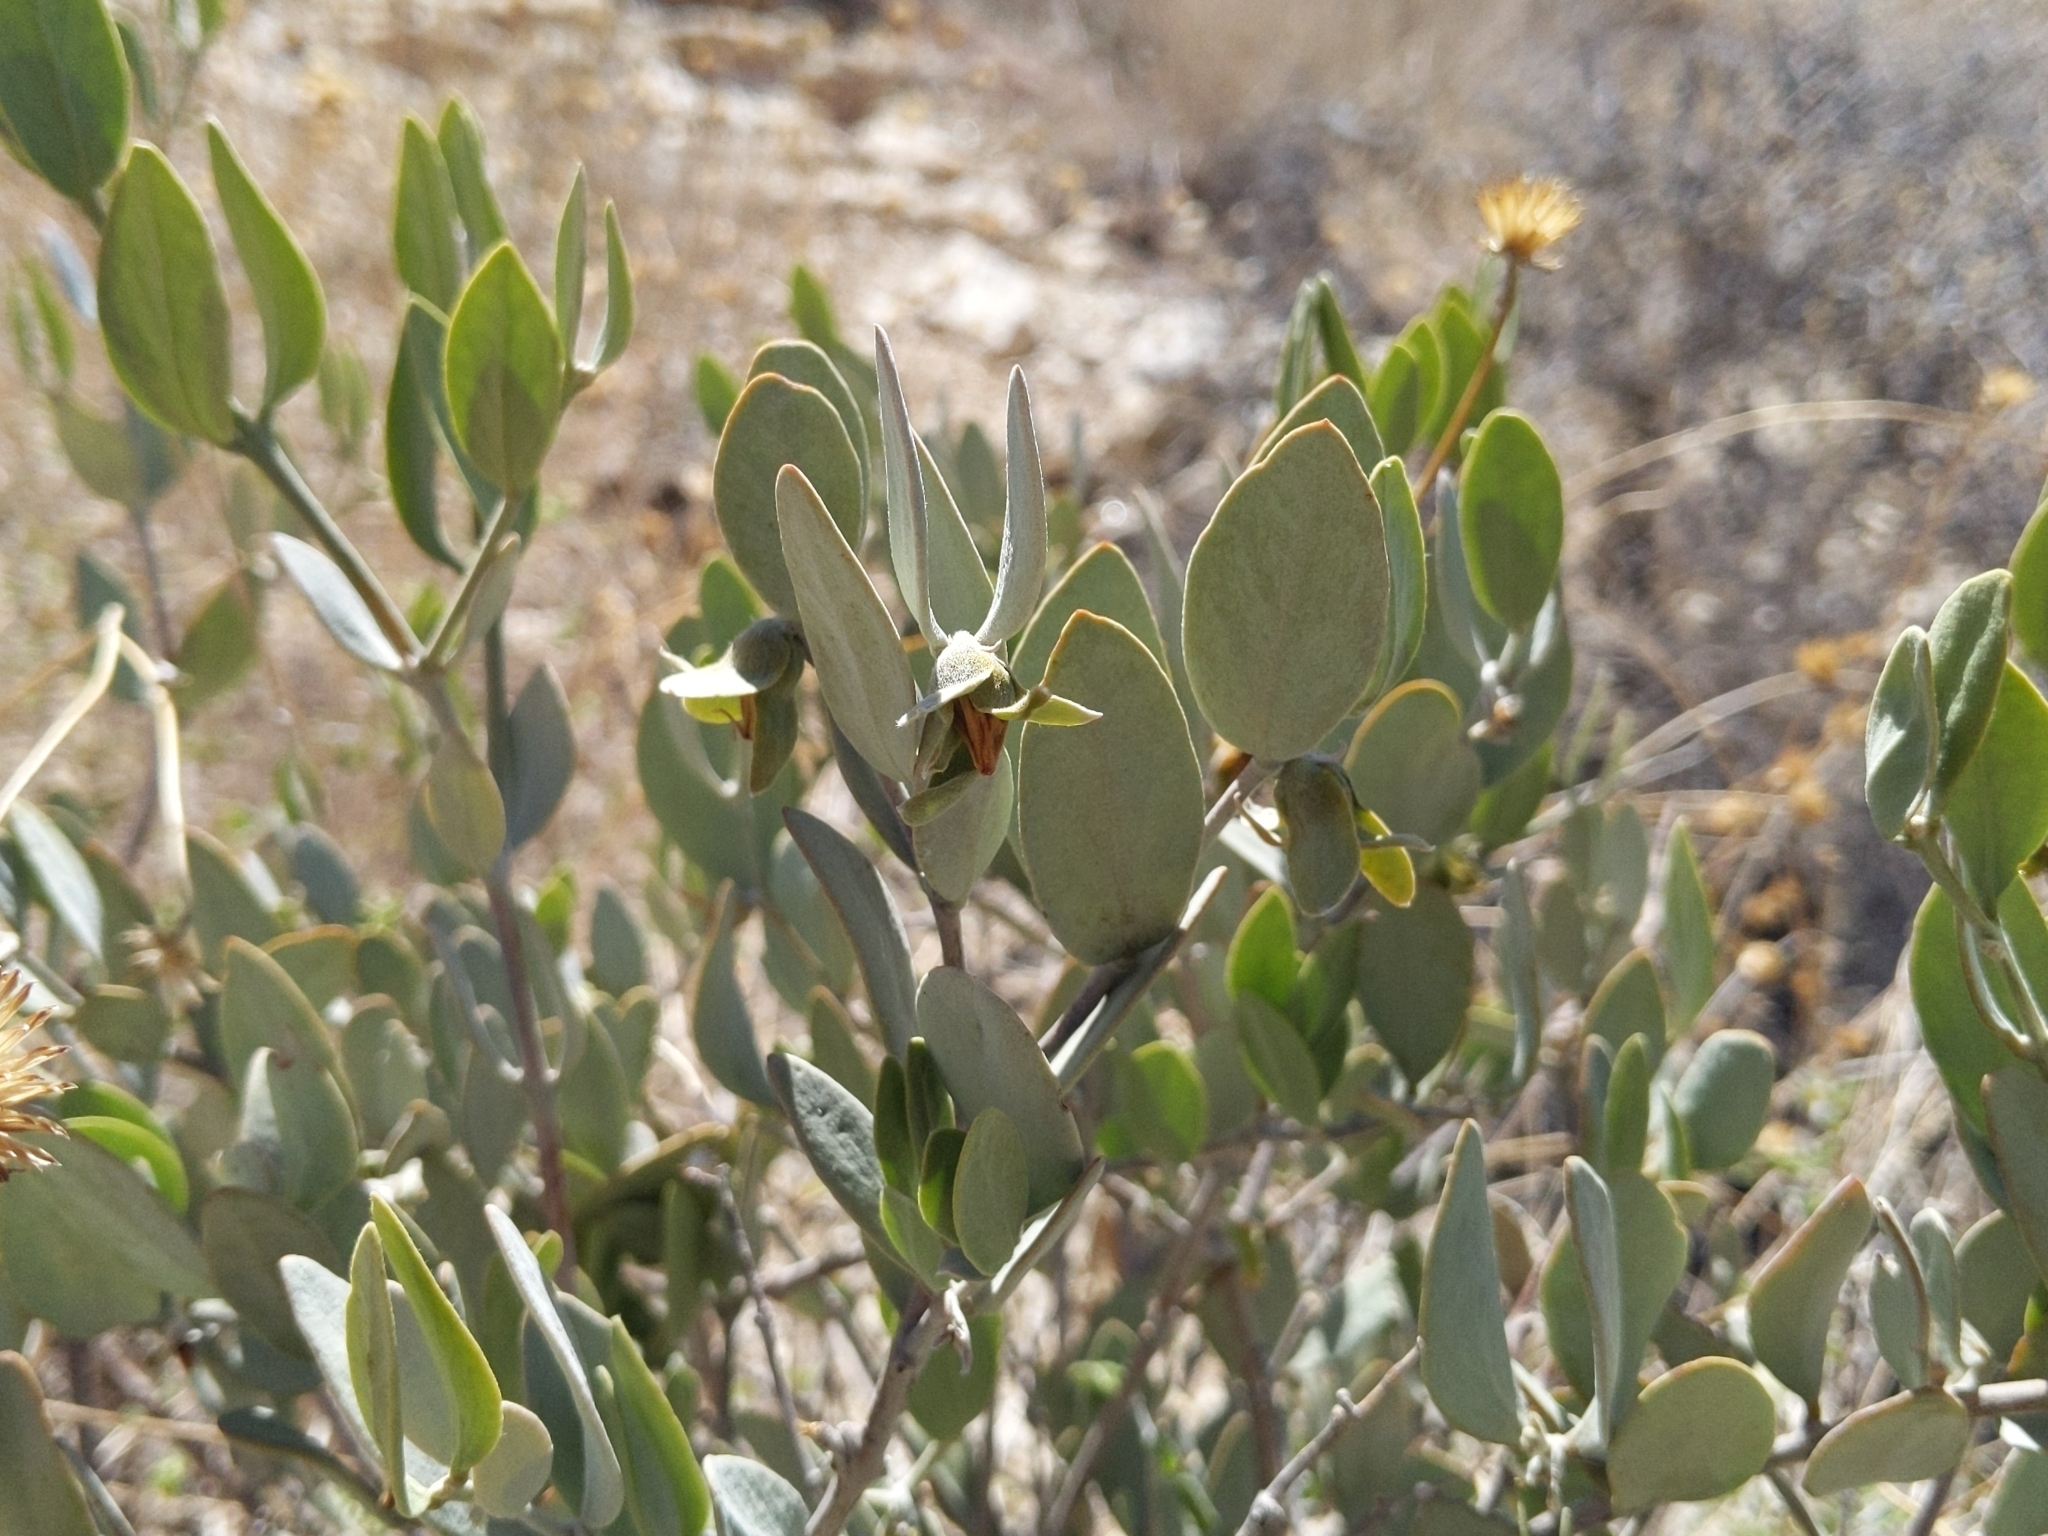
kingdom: Plantae
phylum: Tracheophyta
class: Magnoliopsida
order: Caryophyllales
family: Simmondsiaceae
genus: Simmondsia
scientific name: Simmondsia chinensis
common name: Jojoba
